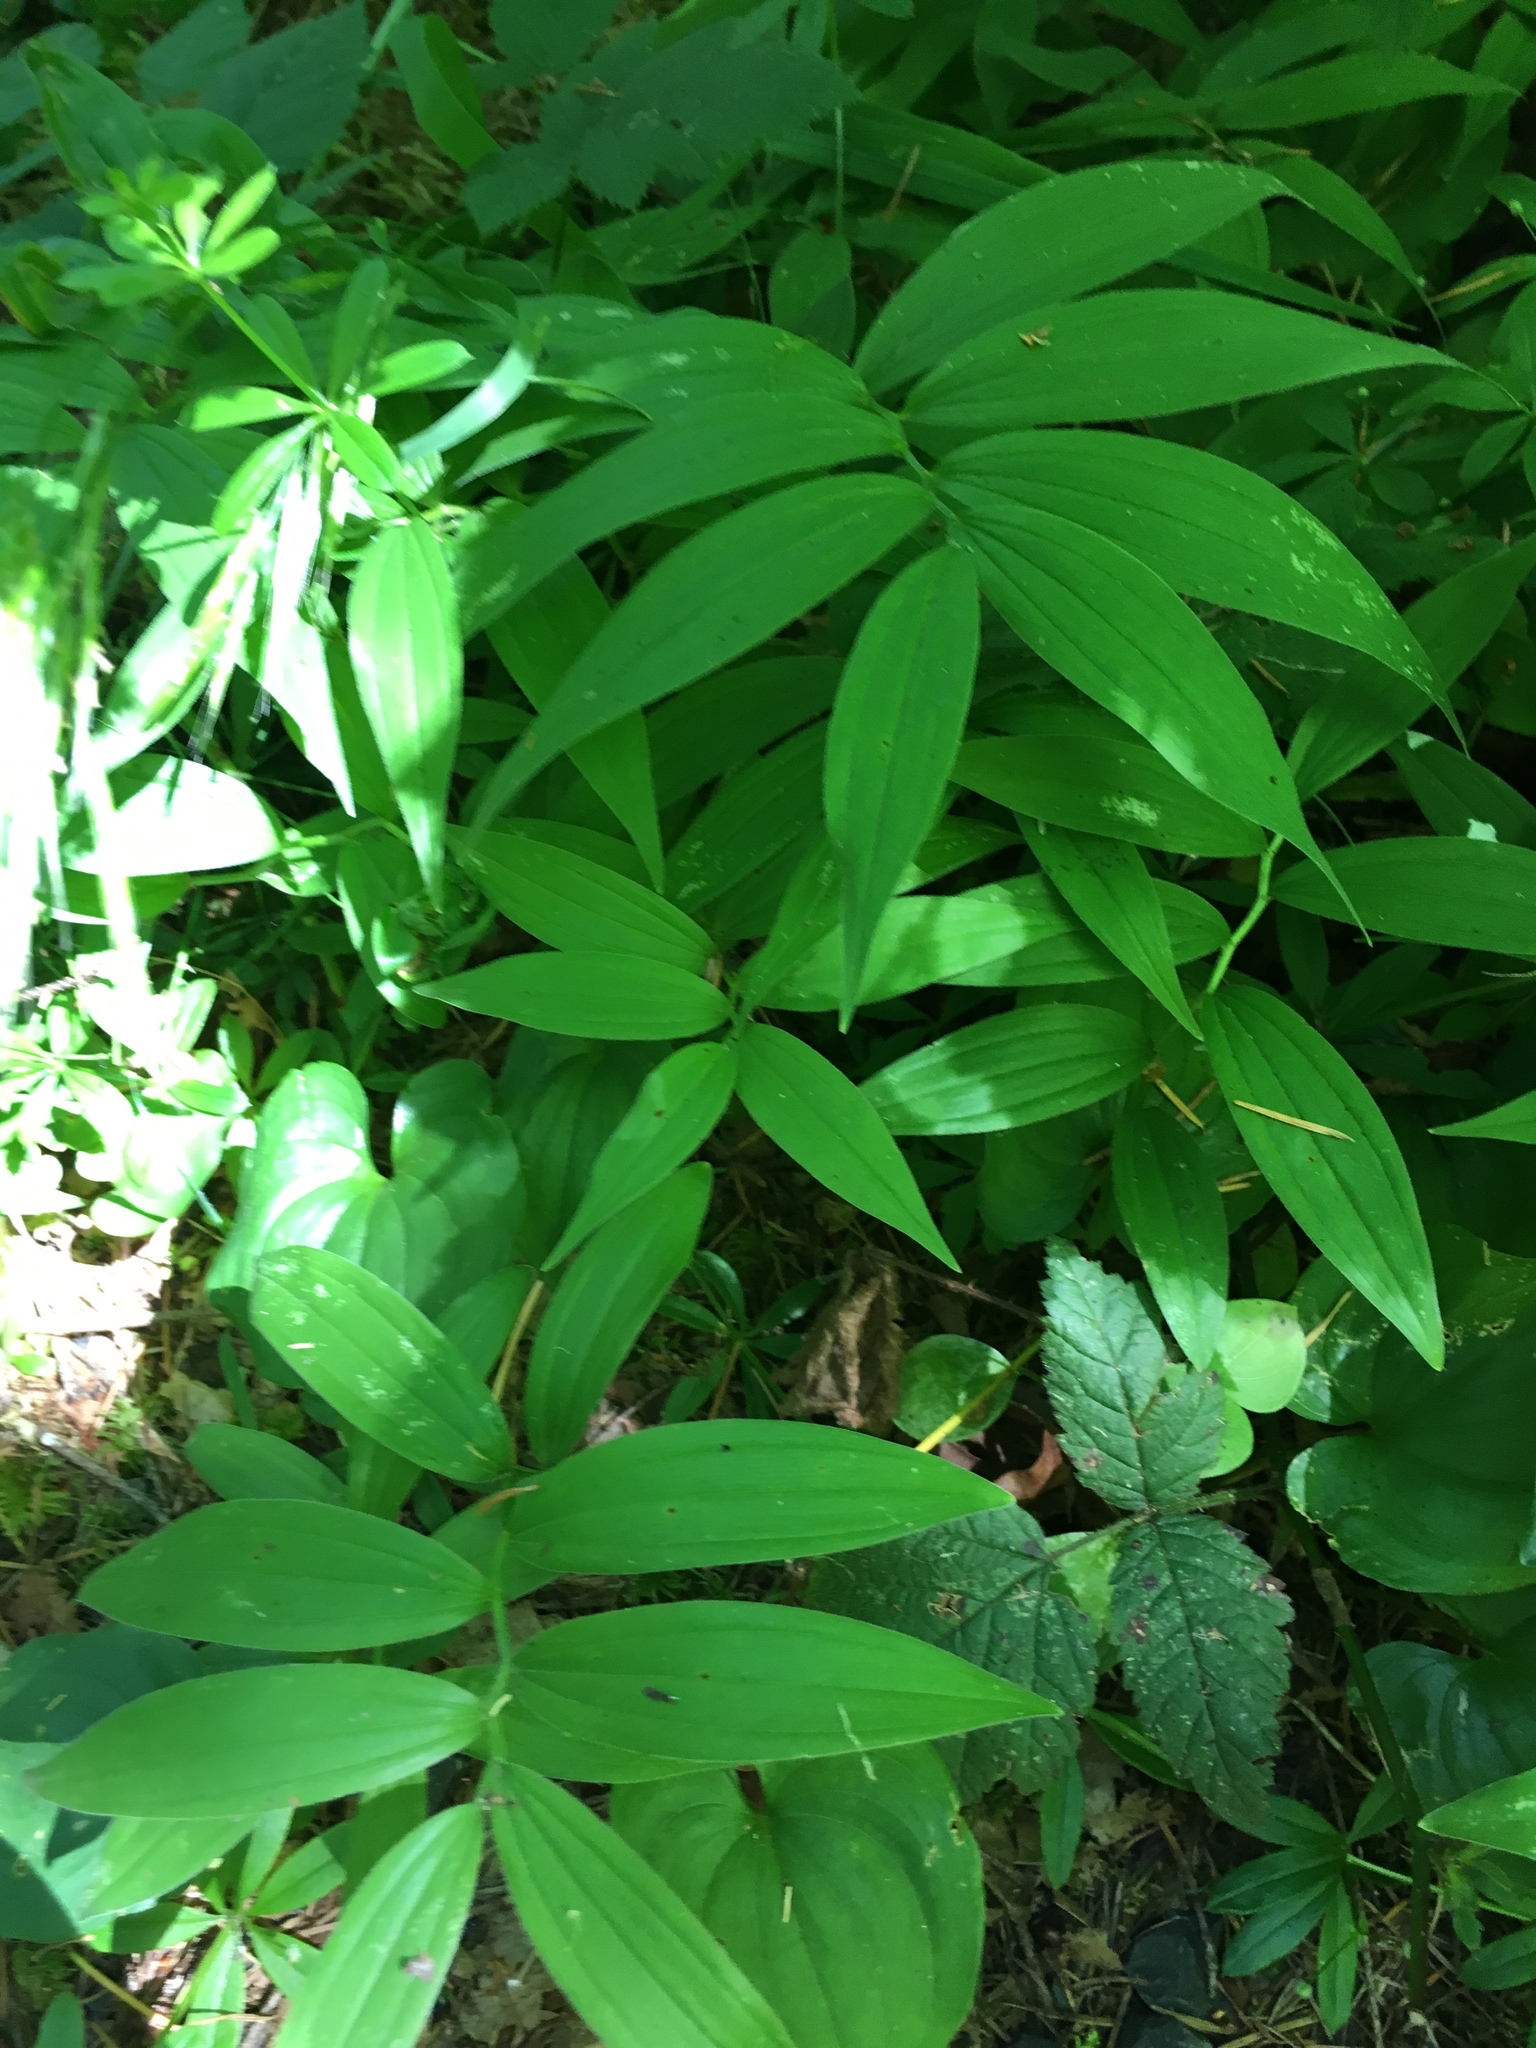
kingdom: Plantae
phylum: Tracheophyta
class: Liliopsida
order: Asparagales
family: Asparagaceae
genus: Maianthemum
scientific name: Maianthemum stellatum
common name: Little false solomon's seal
